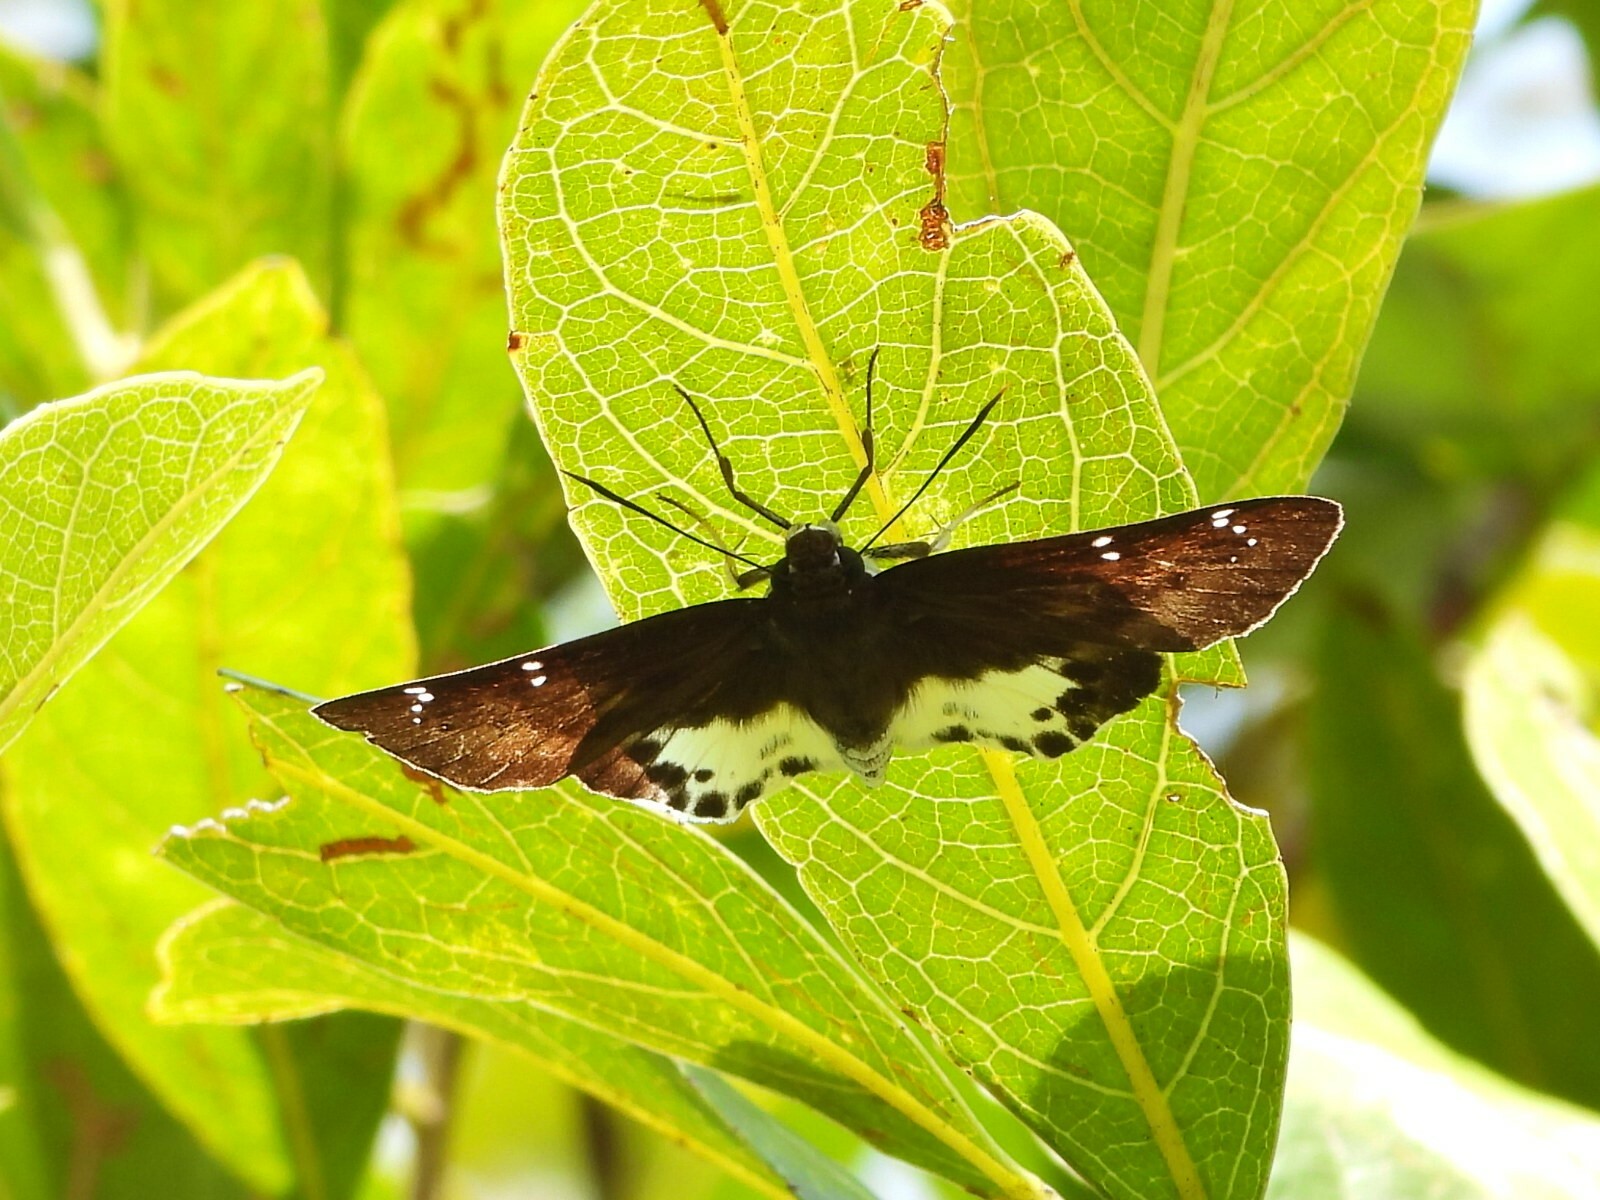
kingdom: Animalia
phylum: Arthropoda
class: Insecta
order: Lepidoptera
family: Hesperiidae
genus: Tagiades
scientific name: Tagiades menaka
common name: Dark-edged snow flat
